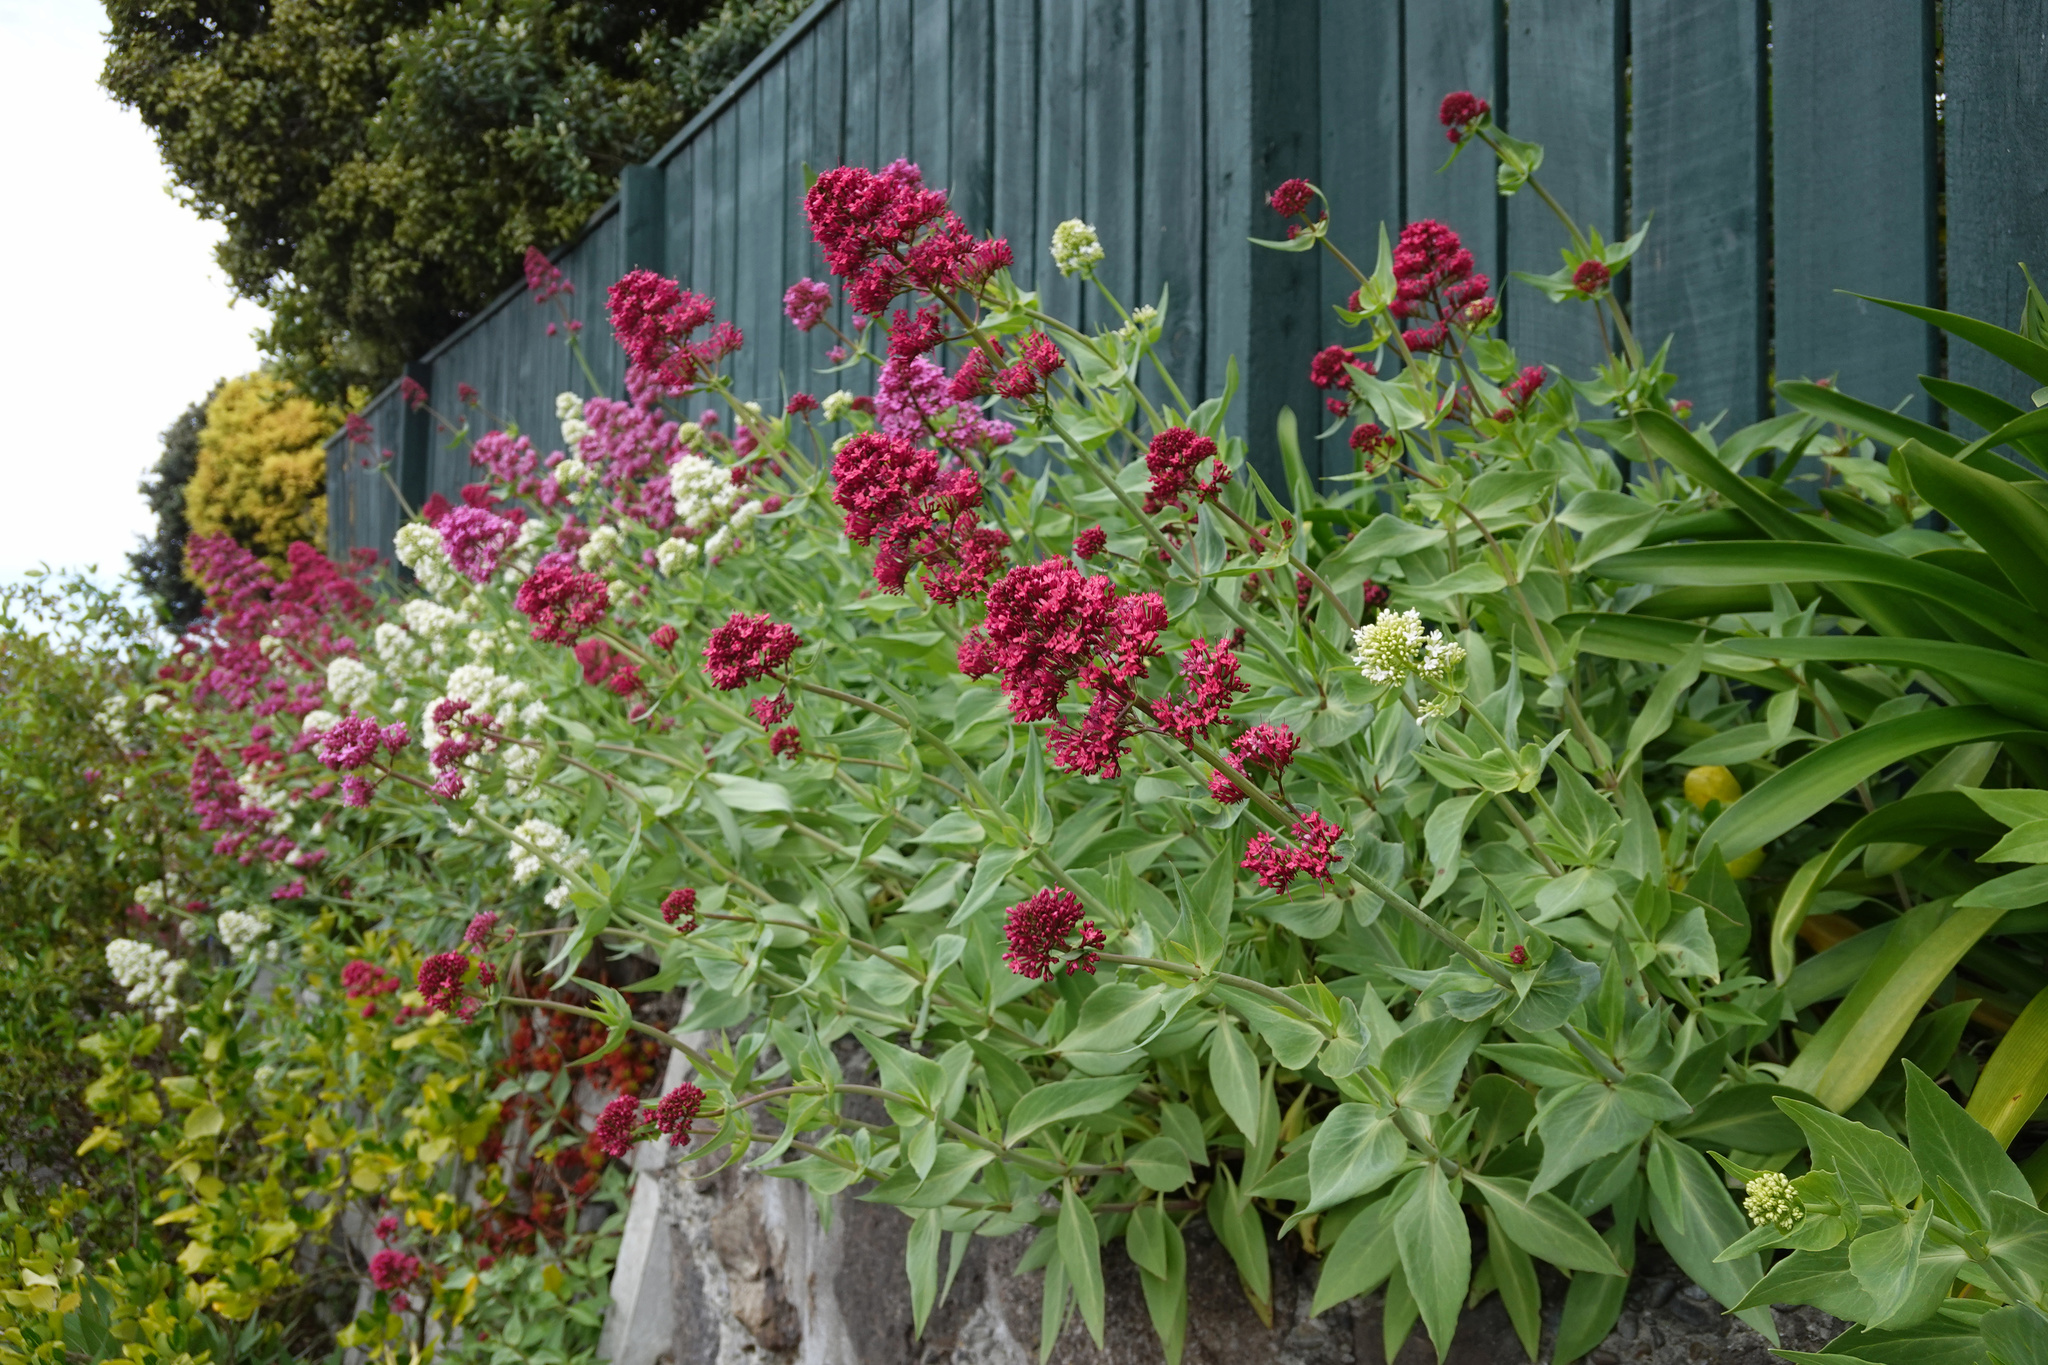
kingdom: Plantae
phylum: Tracheophyta
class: Magnoliopsida
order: Dipsacales
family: Caprifoliaceae
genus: Centranthus
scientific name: Centranthus ruber
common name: Red valerian
